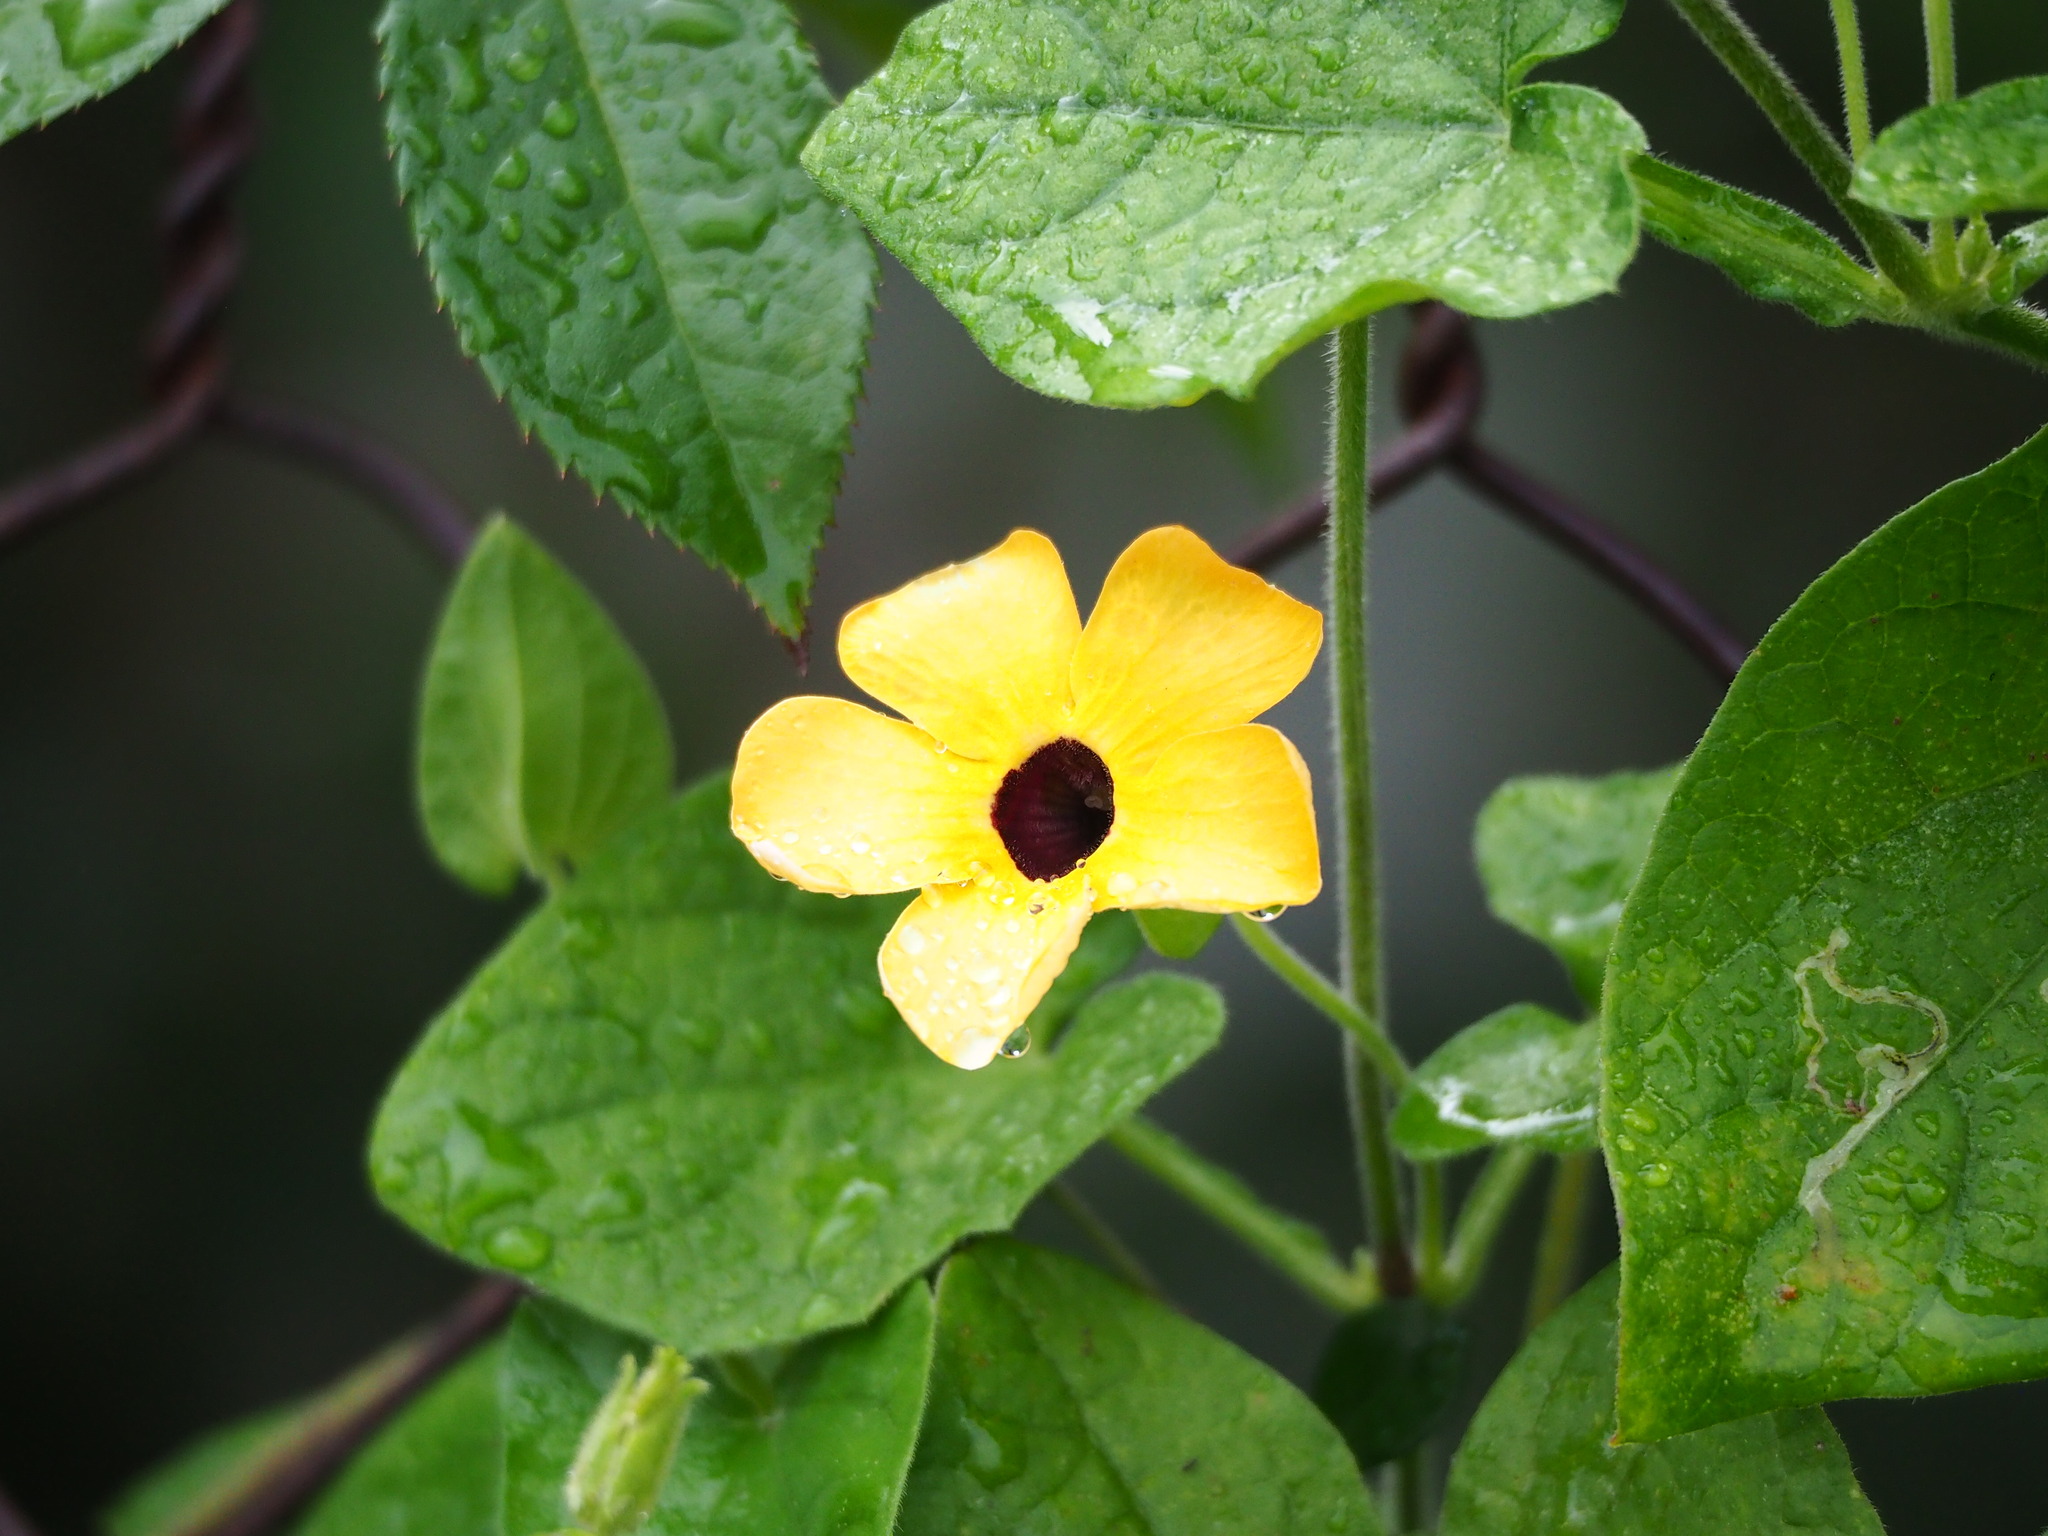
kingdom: Plantae
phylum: Tracheophyta
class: Magnoliopsida
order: Lamiales
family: Acanthaceae
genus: Thunbergia
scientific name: Thunbergia alata
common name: Blackeyed susan vine
